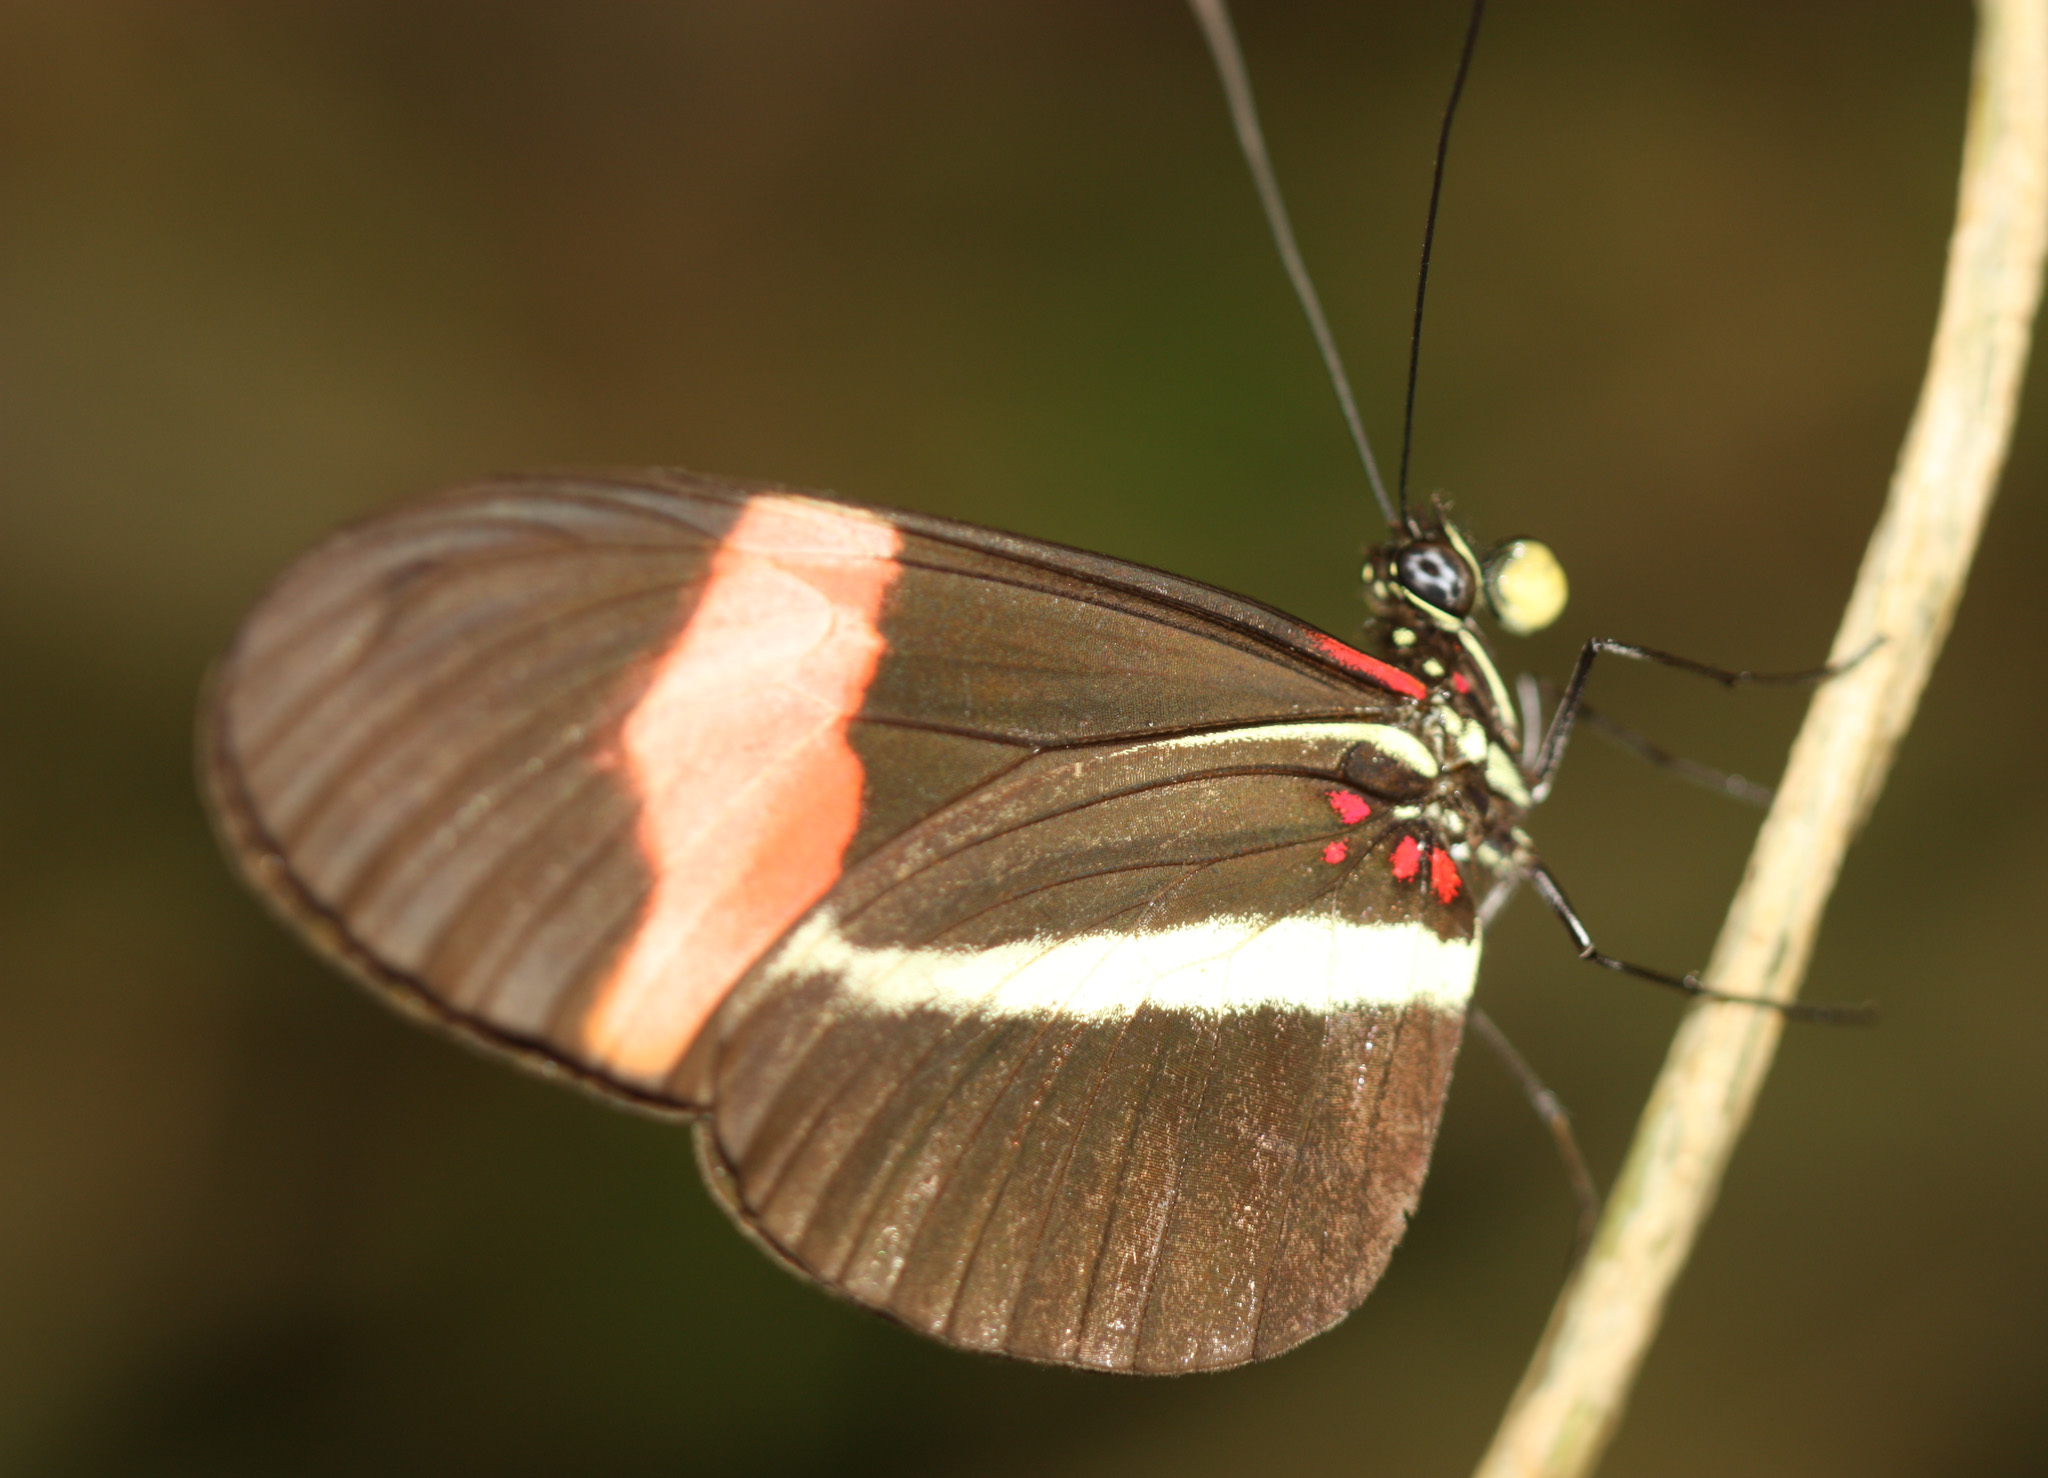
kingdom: Animalia
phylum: Arthropoda
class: Insecta
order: Lepidoptera
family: Nymphalidae
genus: Tirumala
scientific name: Tirumala petiverana
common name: Blue monarch
